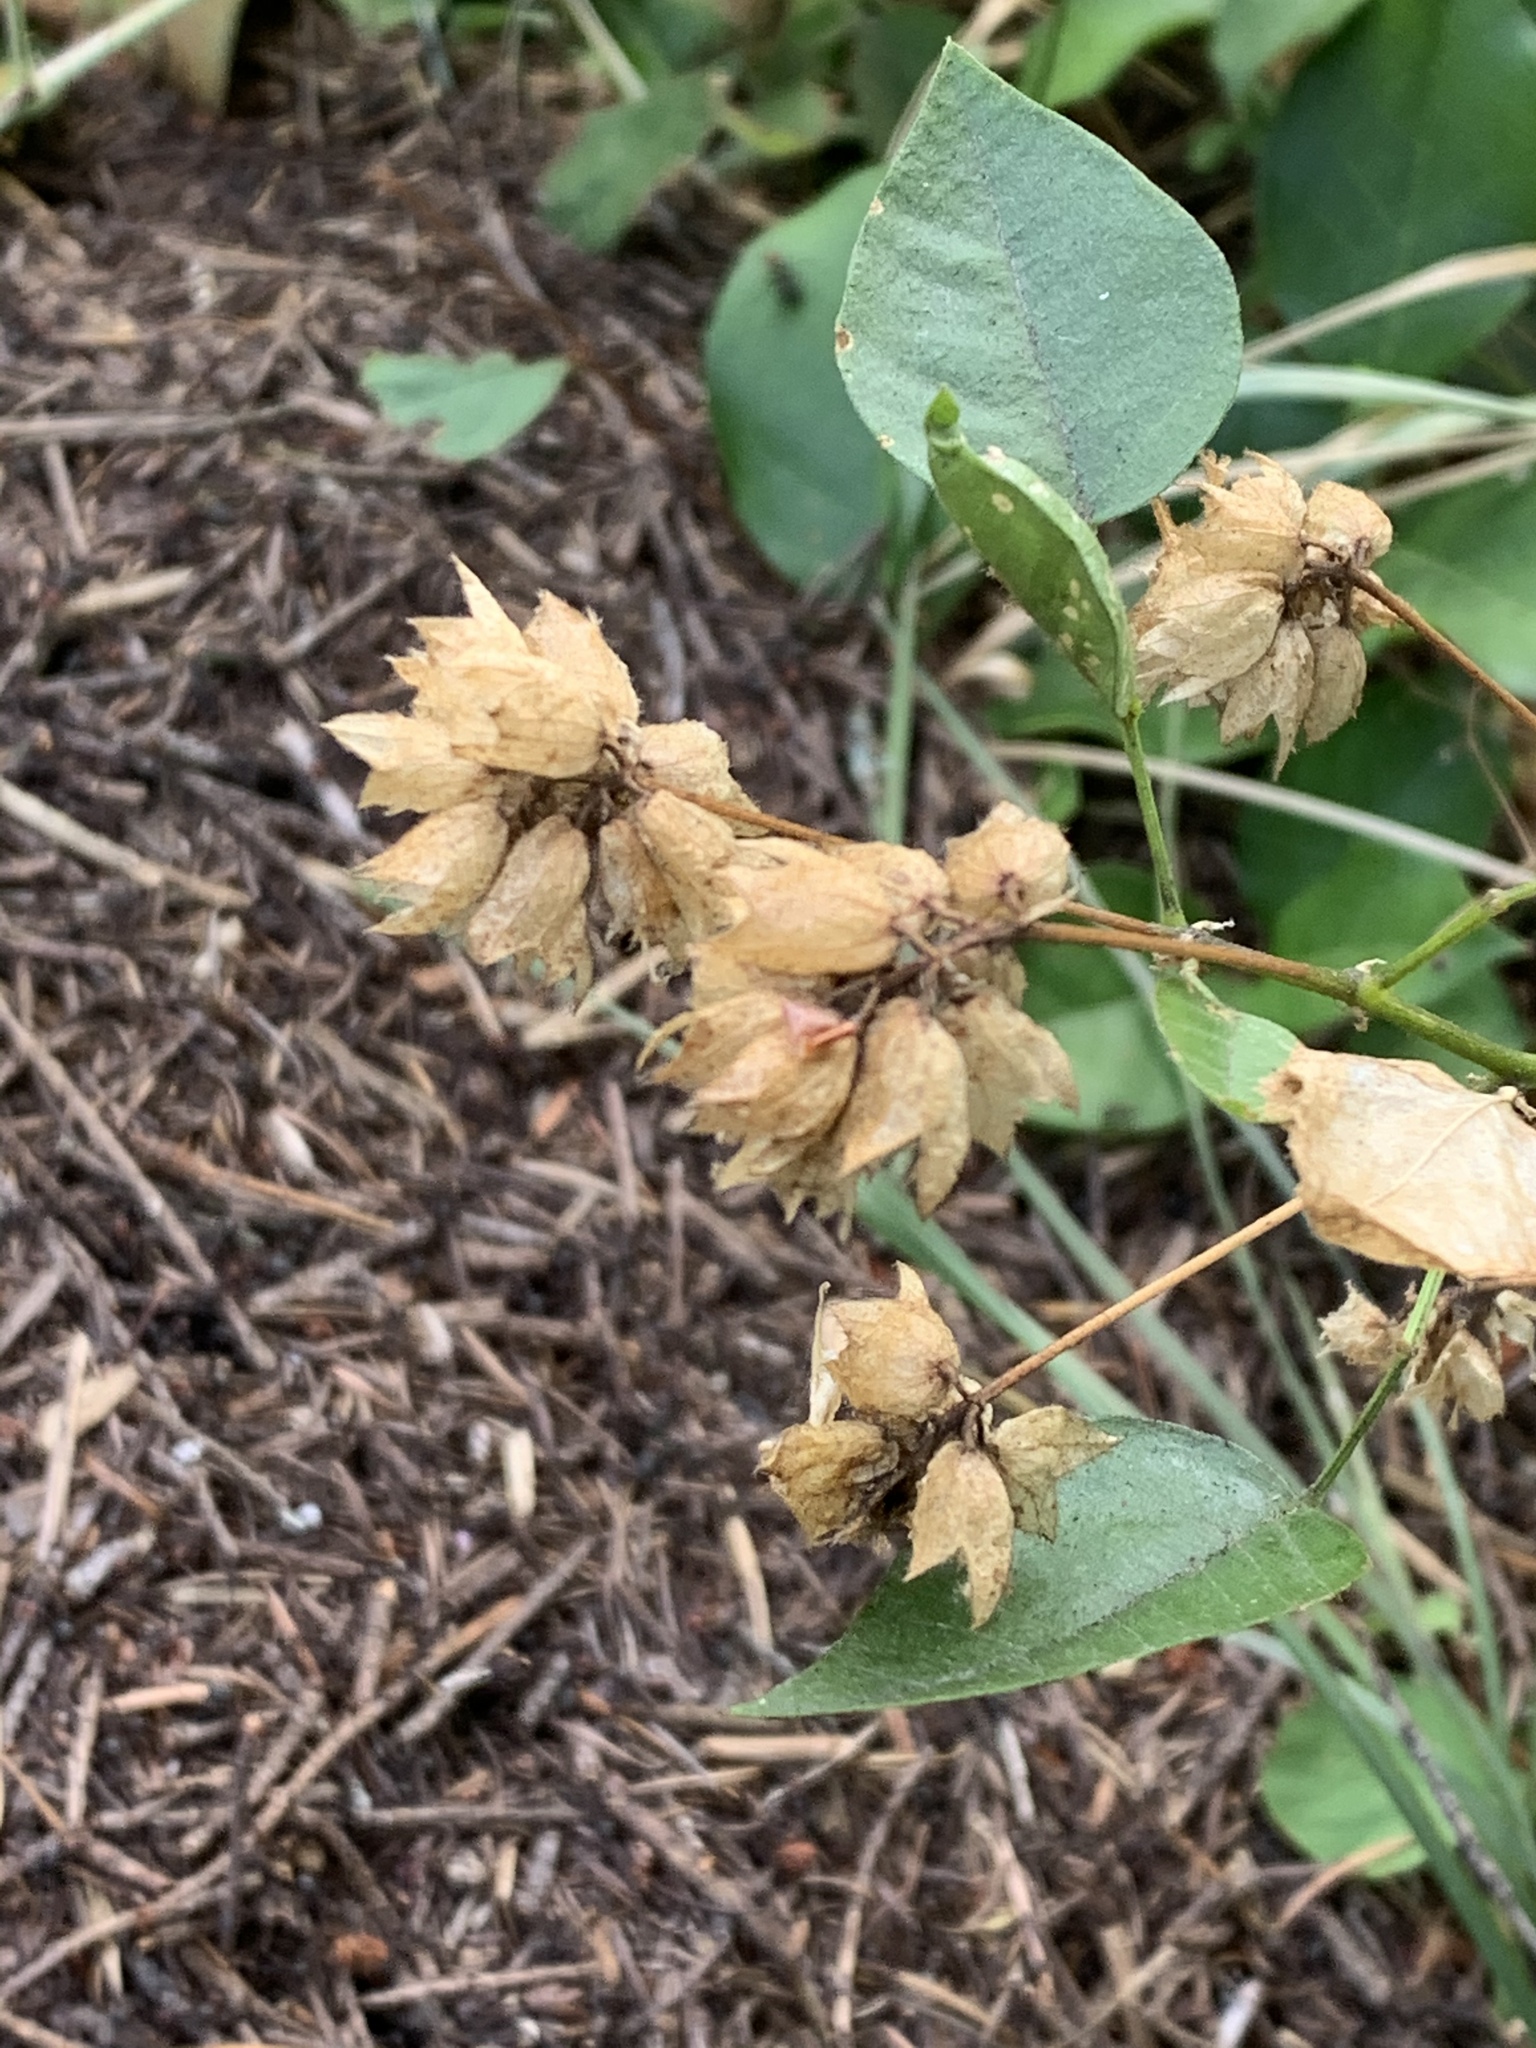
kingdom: Plantae
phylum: Tracheophyta
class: Magnoliopsida
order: Fabales
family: Fabaceae
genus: Rupertia
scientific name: Rupertia physodes
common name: California-tea
